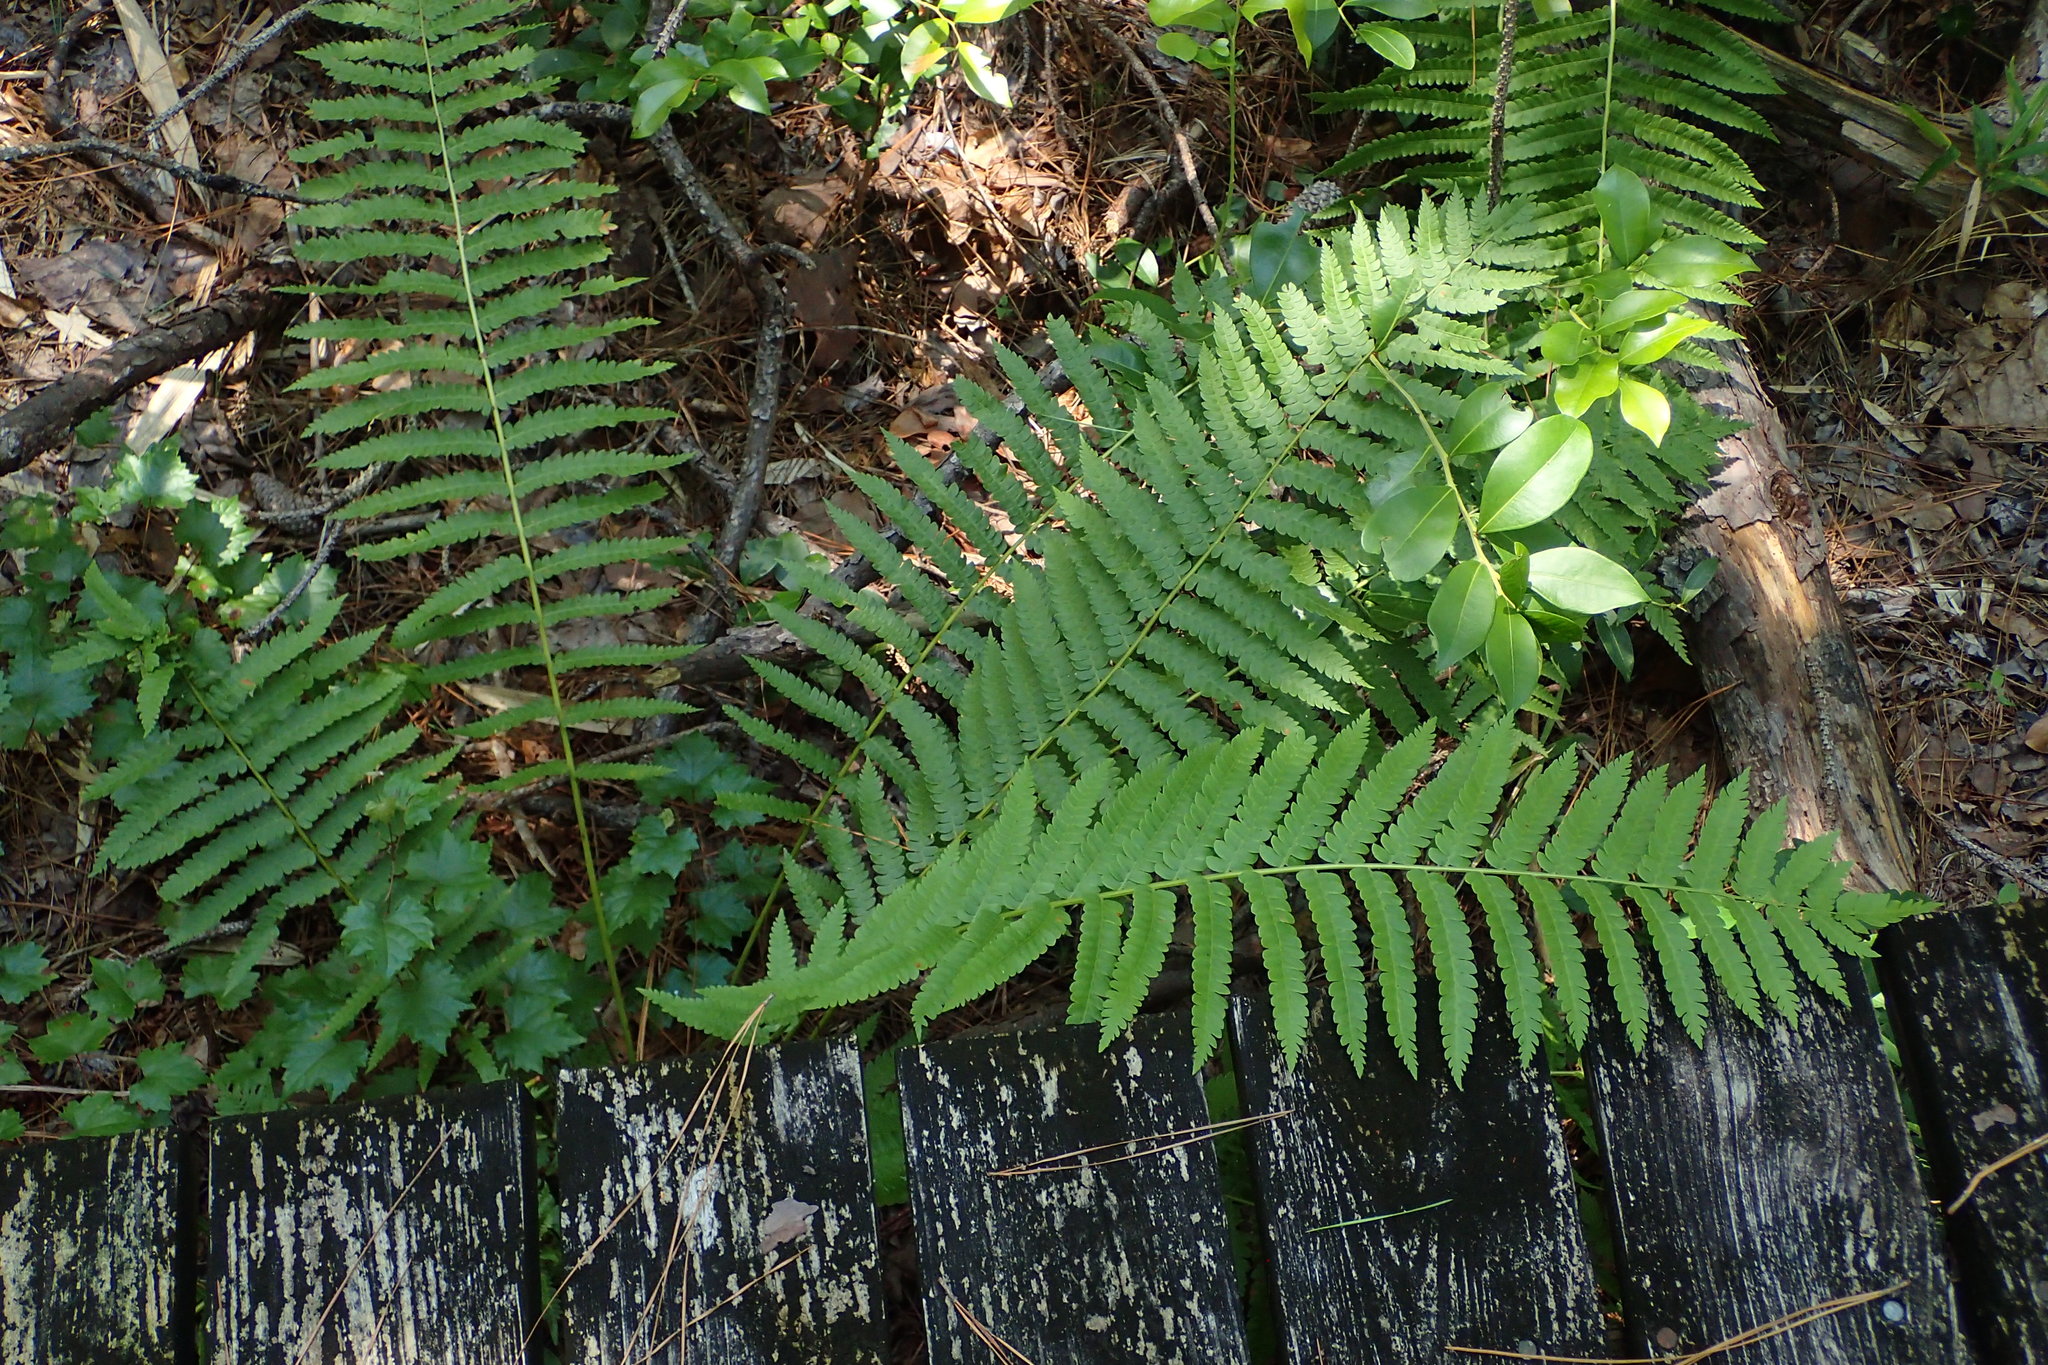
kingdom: Plantae
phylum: Tracheophyta
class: Polypodiopsida
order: Osmundales
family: Osmundaceae
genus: Osmundastrum
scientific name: Osmundastrum cinnamomeum
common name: Cinnamon fern
